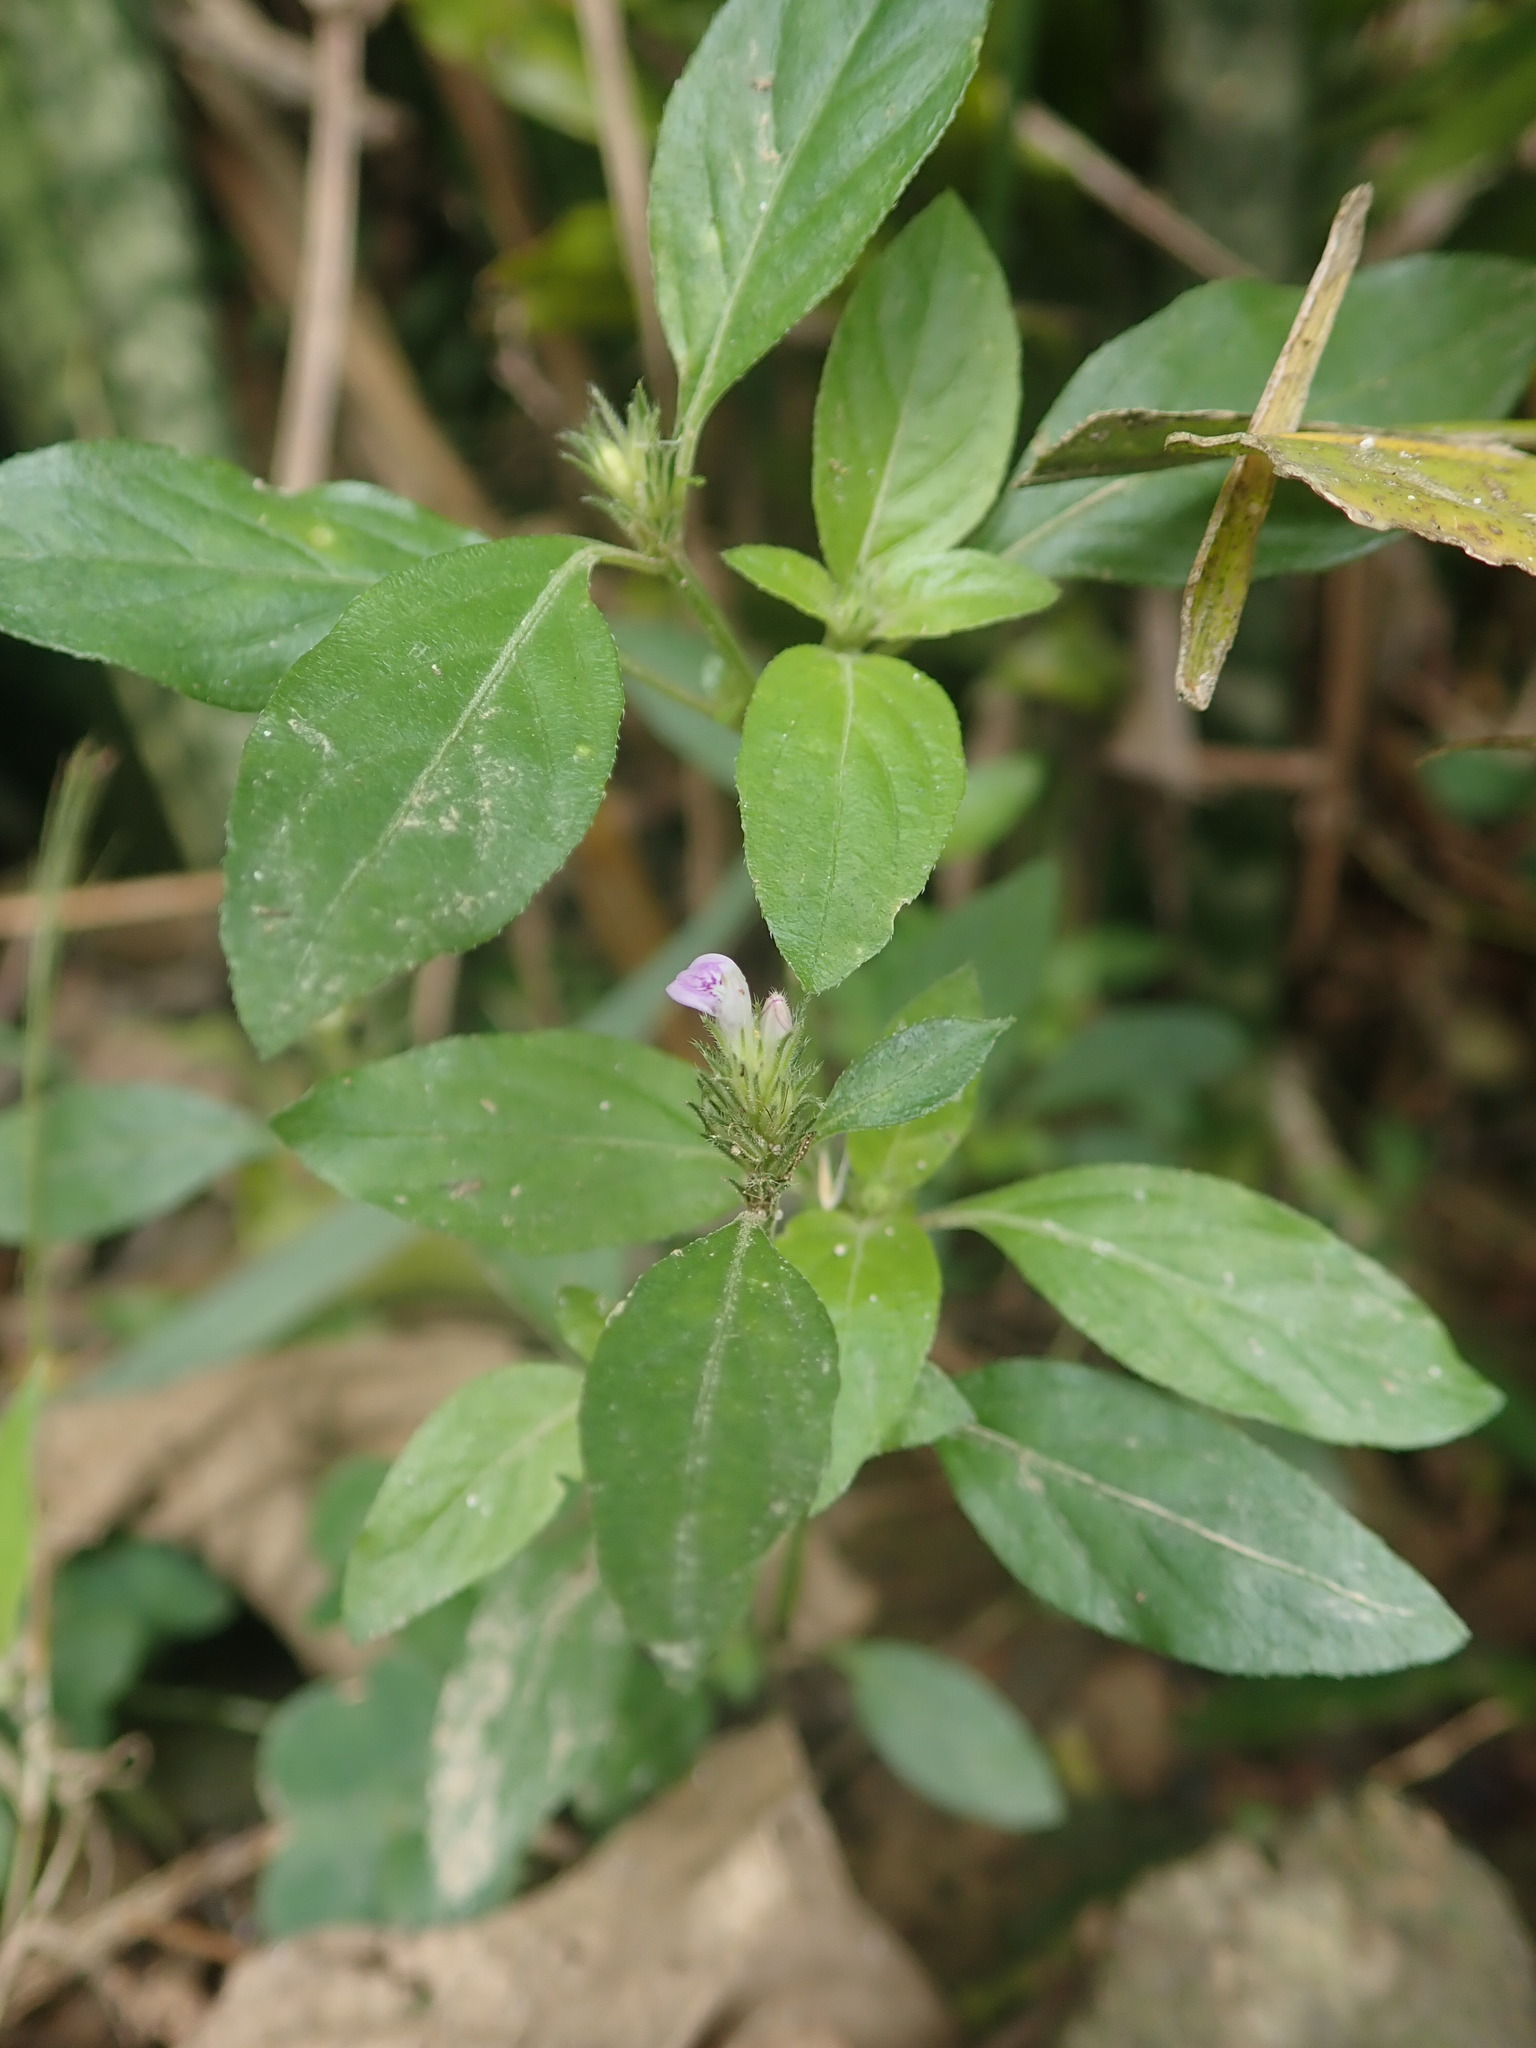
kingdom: Plantae
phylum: Tracheophyta
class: Magnoliopsida
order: Lamiales
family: Acanthaceae
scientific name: Acanthaceae
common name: Acanthaceae
